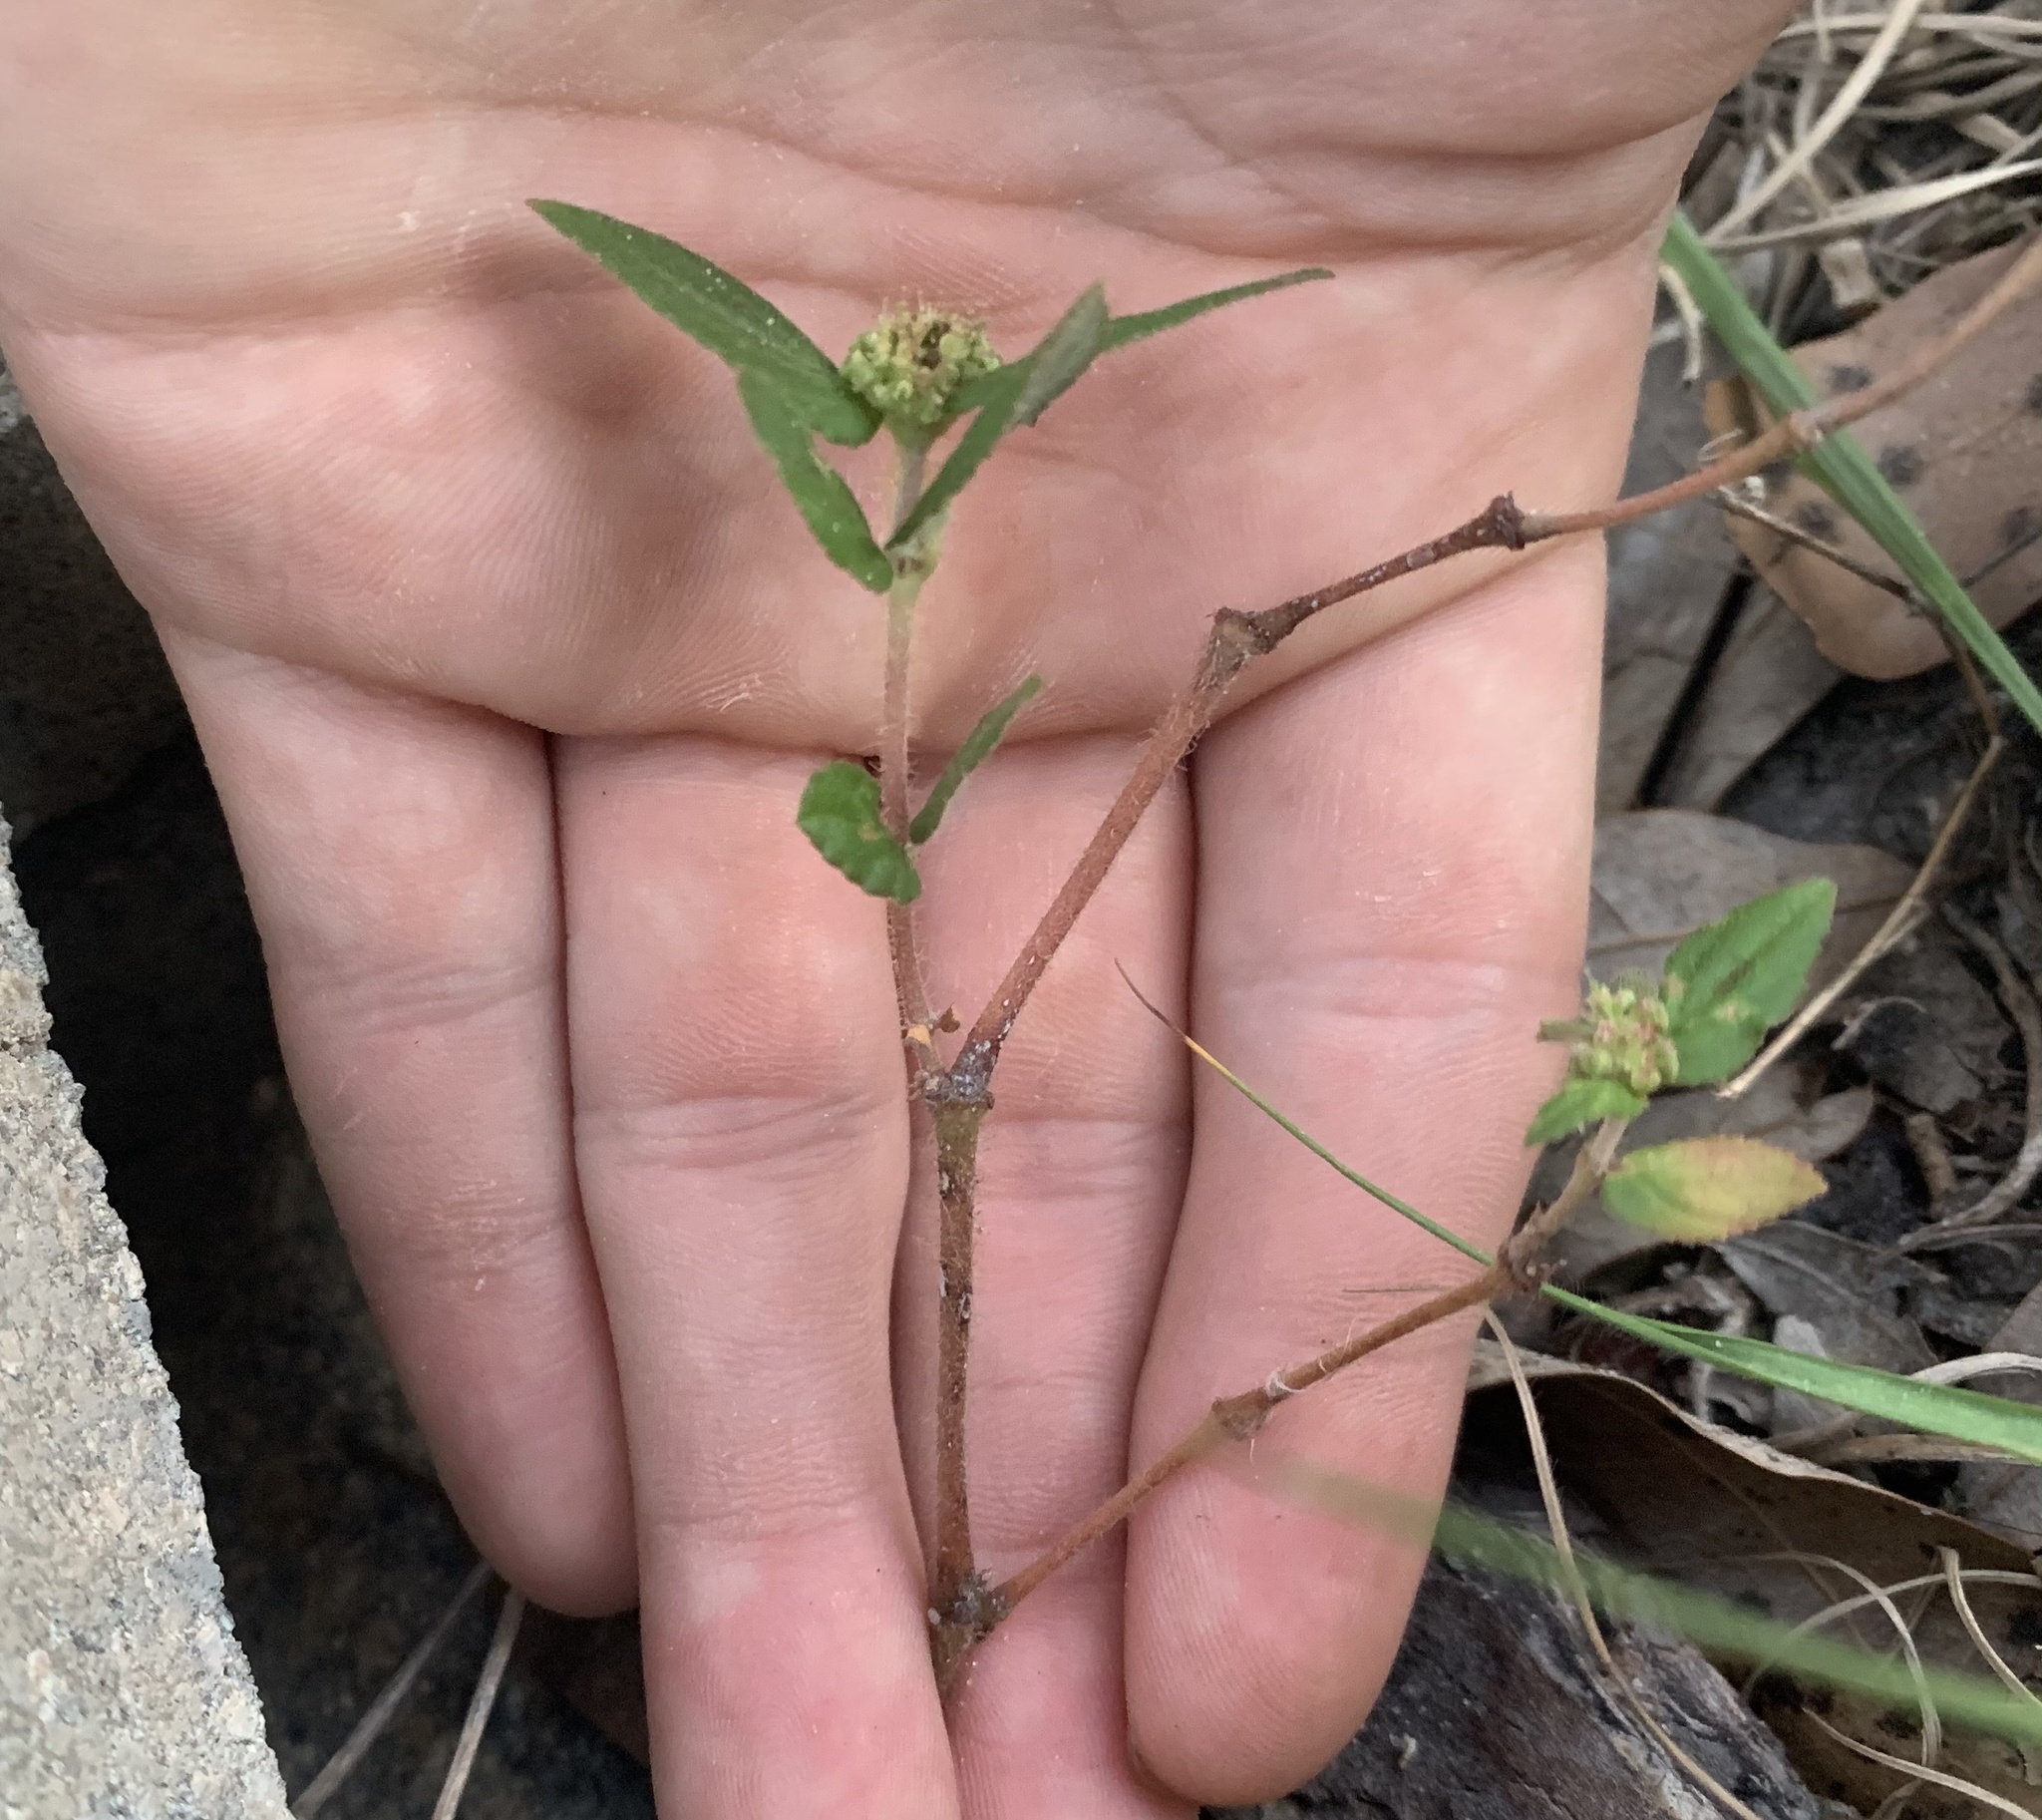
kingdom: Plantae
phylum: Tracheophyta
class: Magnoliopsida
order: Malpighiales
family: Euphorbiaceae
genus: Euphorbia
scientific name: Euphorbia hirta
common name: Pillpod sandmat
